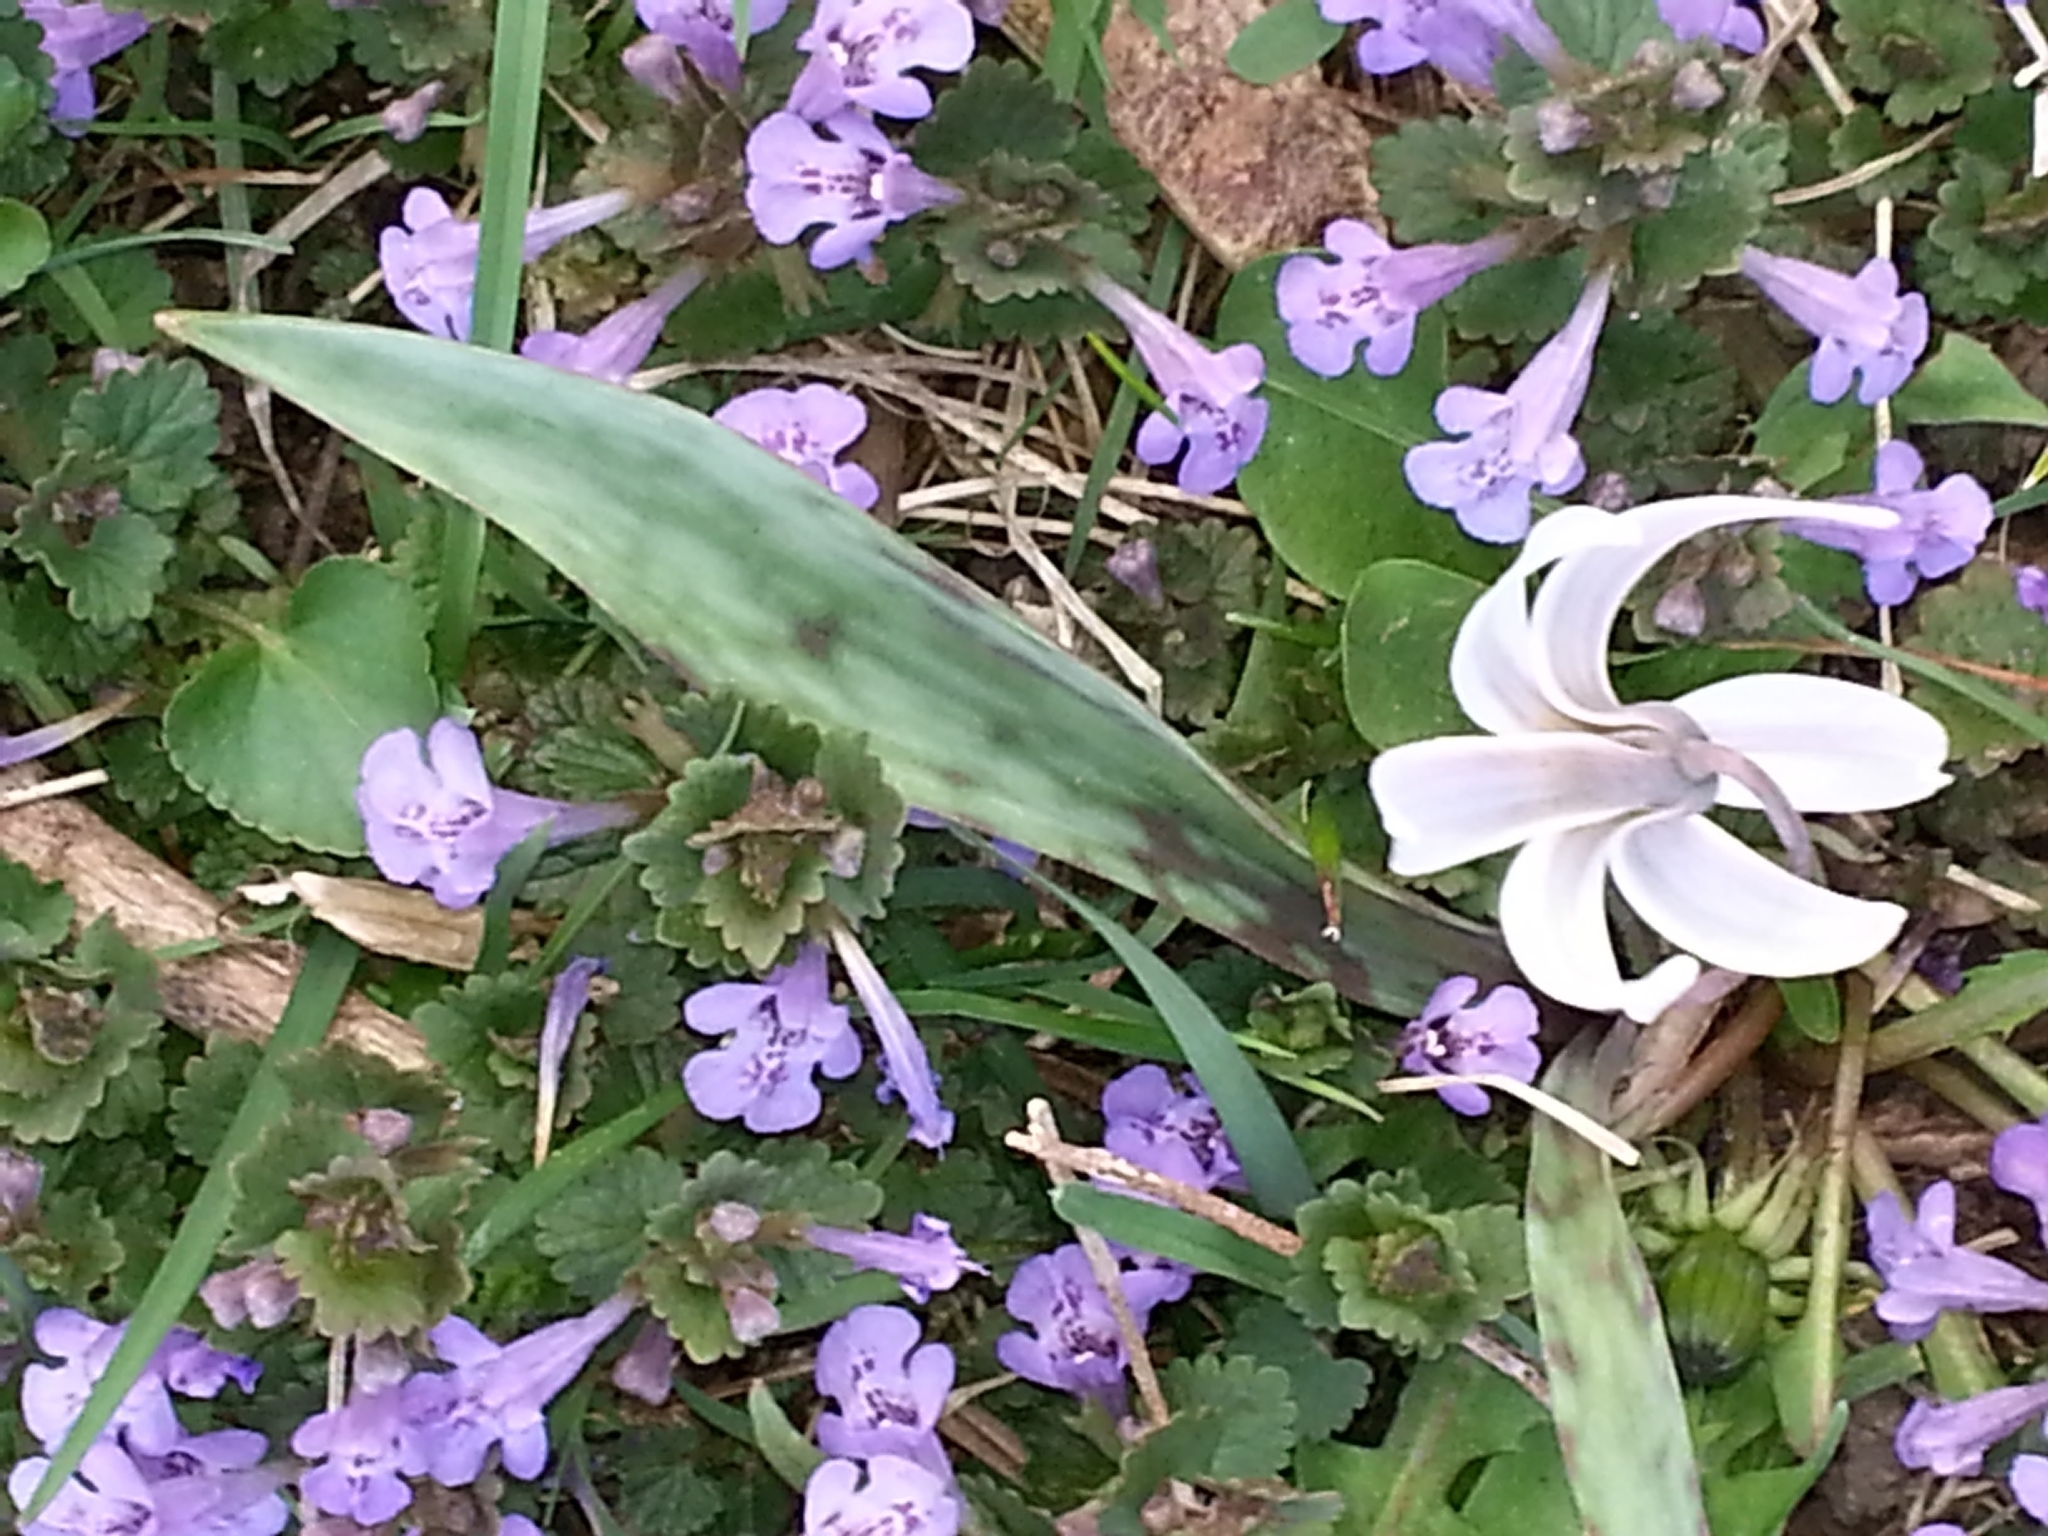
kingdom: Plantae
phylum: Tracheophyta
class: Liliopsida
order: Liliales
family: Liliaceae
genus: Erythronium
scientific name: Erythronium albidum
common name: White trout-lily
